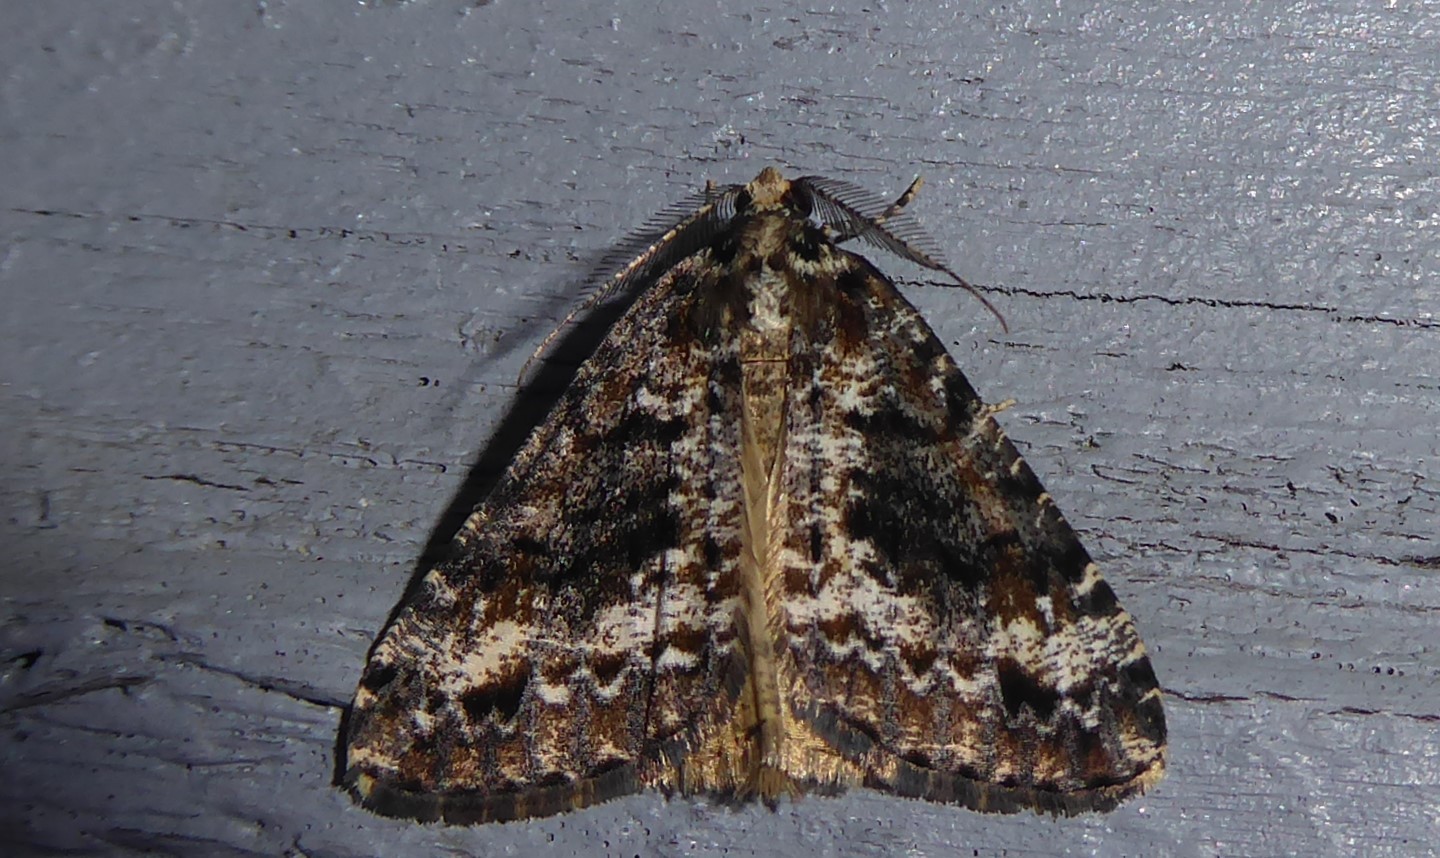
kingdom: Animalia
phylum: Arthropoda
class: Insecta
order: Lepidoptera
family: Geometridae
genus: Pseudocoremia
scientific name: Pseudocoremia leucelaea
